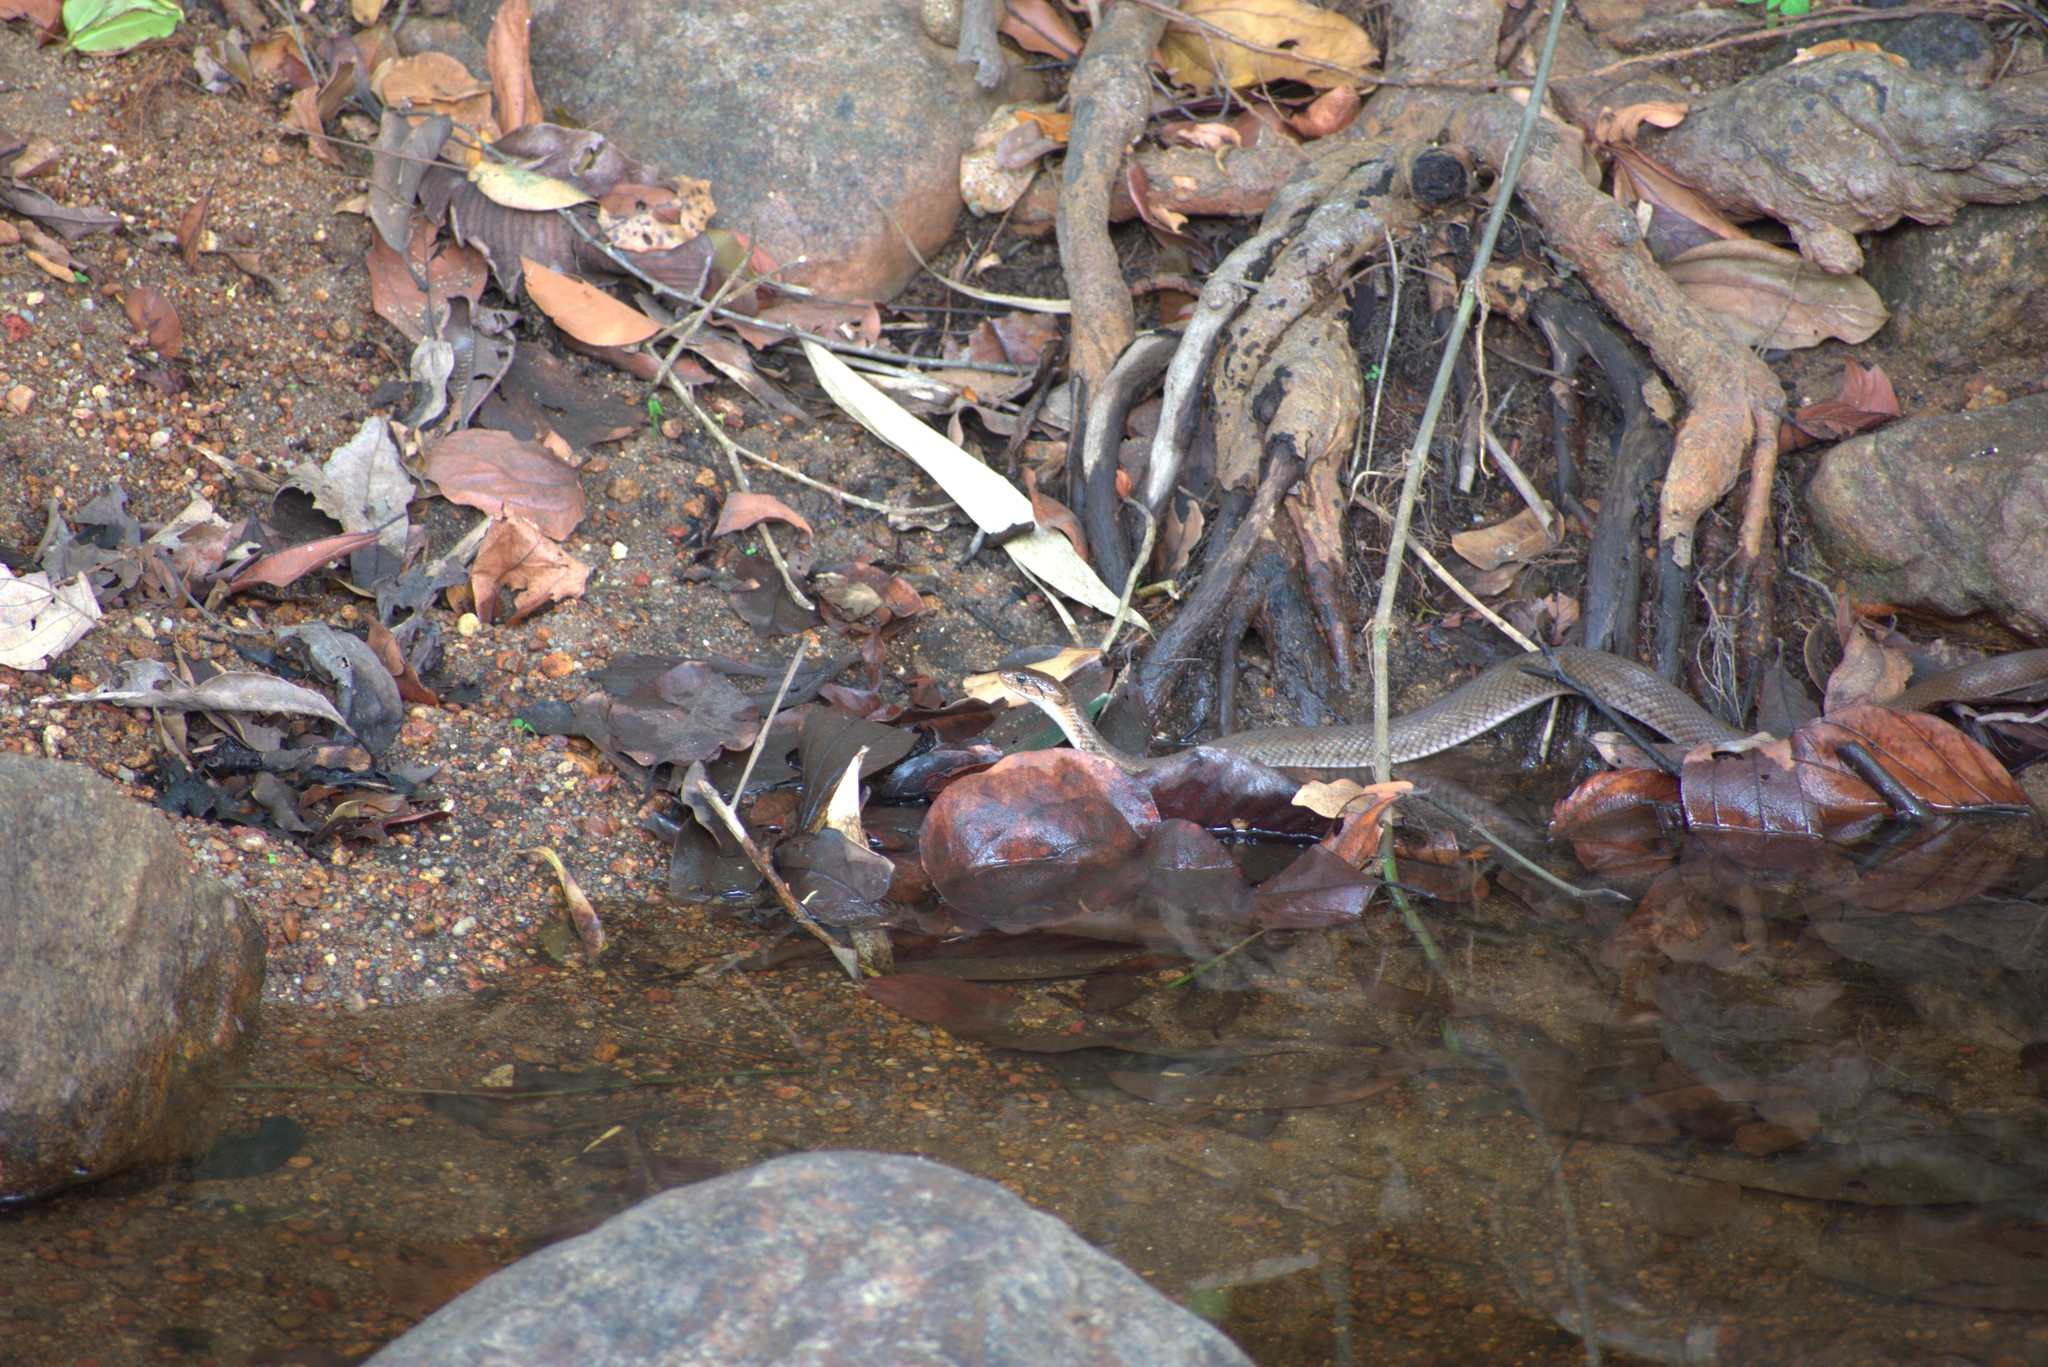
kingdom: Animalia
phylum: Chordata
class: Squamata
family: Colubridae
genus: Fowlea
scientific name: Fowlea piscator
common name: Asiatic water snake
